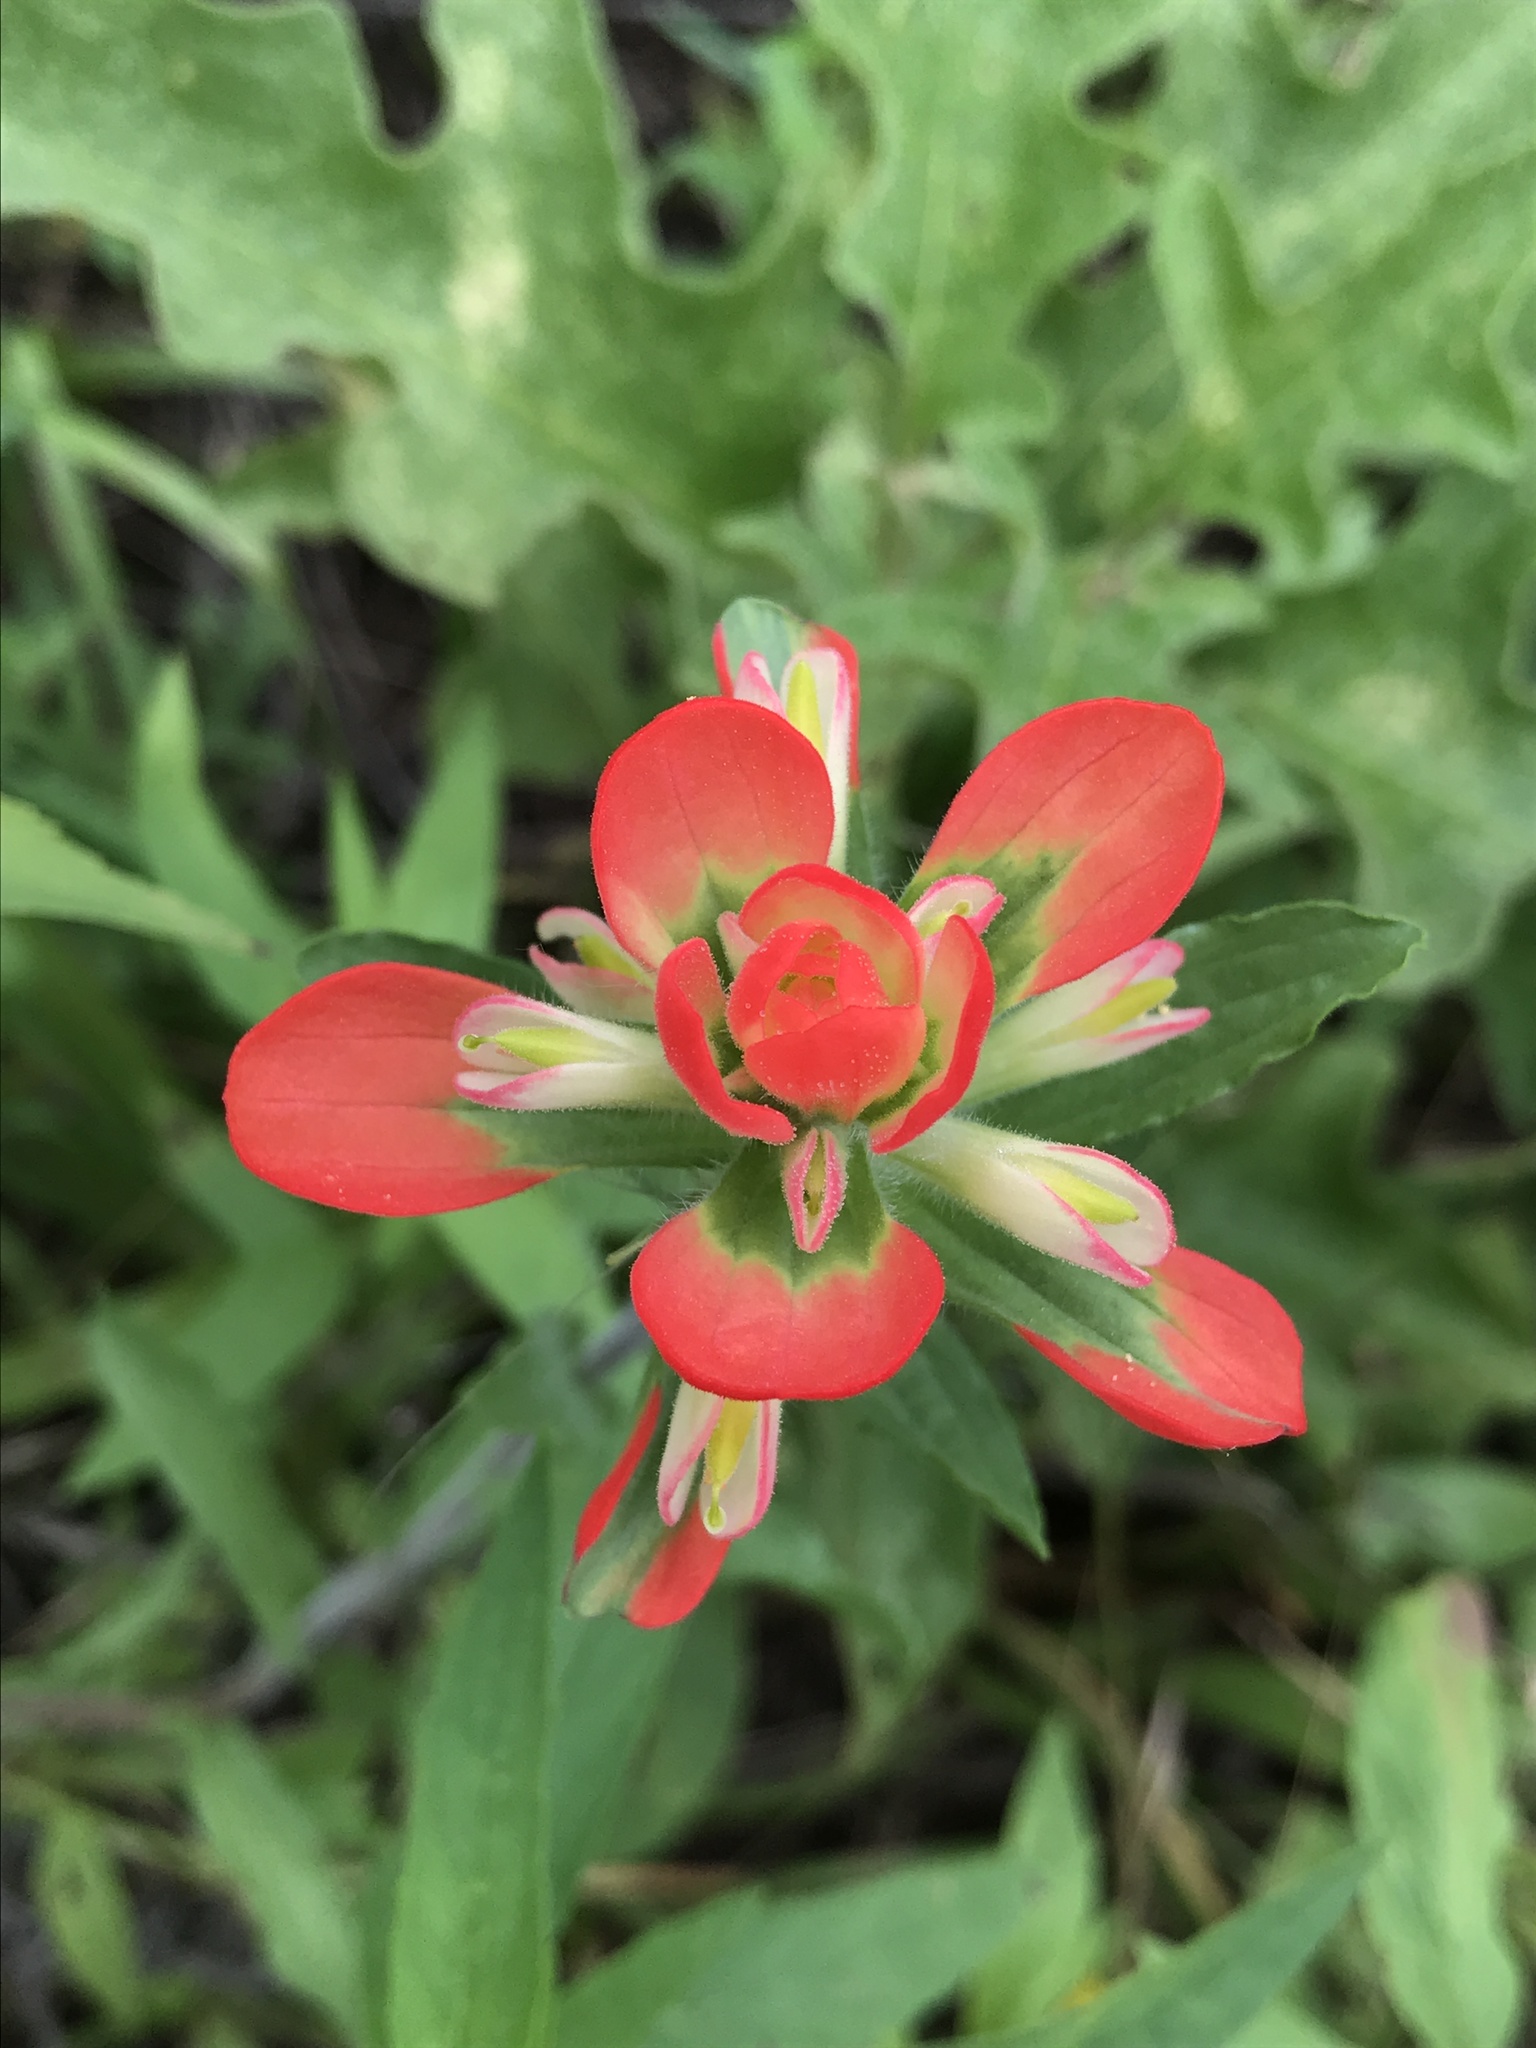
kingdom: Plantae
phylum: Tracheophyta
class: Magnoliopsida
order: Lamiales
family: Orobanchaceae
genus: Castilleja
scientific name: Castilleja indivisa
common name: Texas paintbrush
